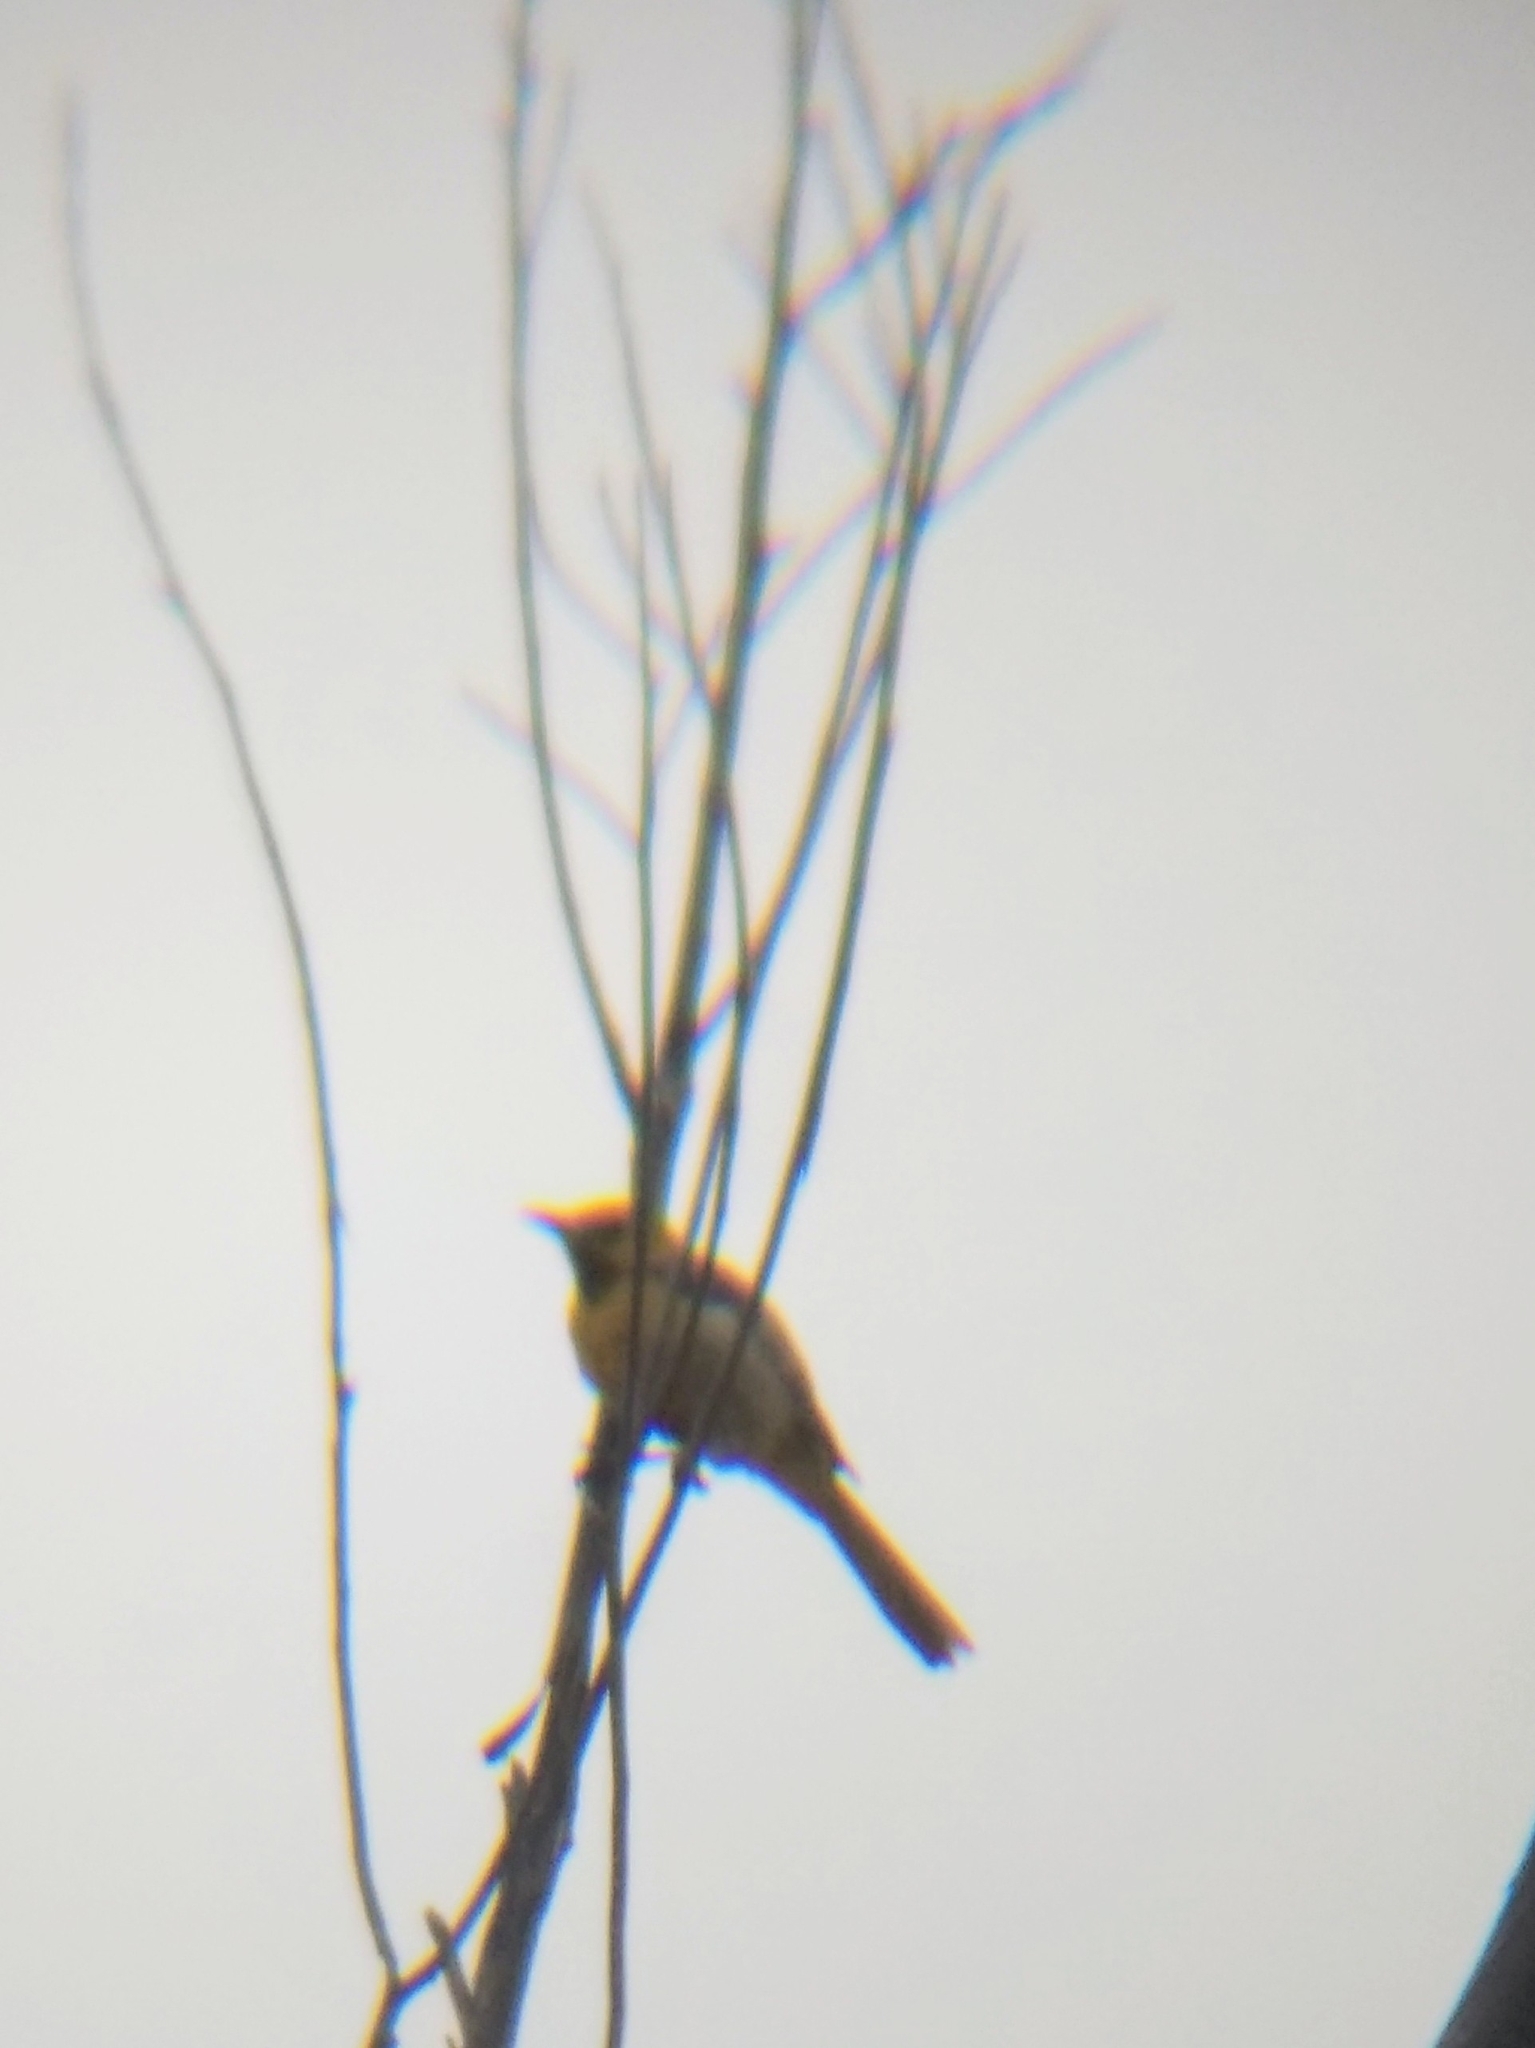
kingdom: Animalia
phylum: Chordata
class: Aves
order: Passeriformes
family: Icteridae
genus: Icterus
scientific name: Icterus cucullatus
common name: Hooded oriole
